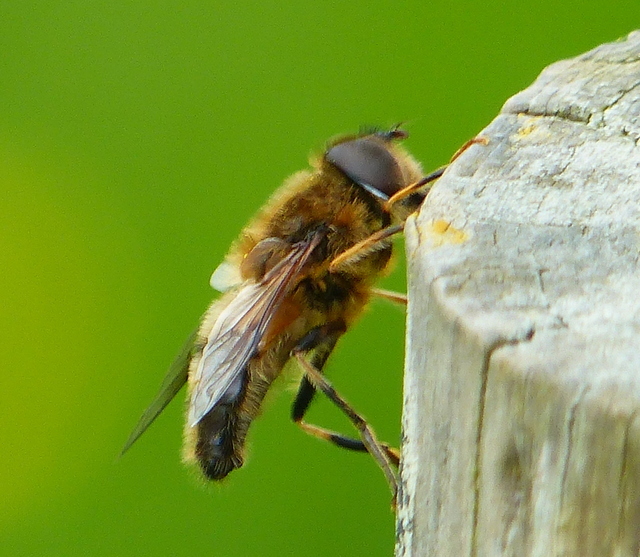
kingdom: Animalia
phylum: Arthropoda
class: Insecta
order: Diptera
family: Syrphidae
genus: Eristalis
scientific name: Eristalis pertinax
